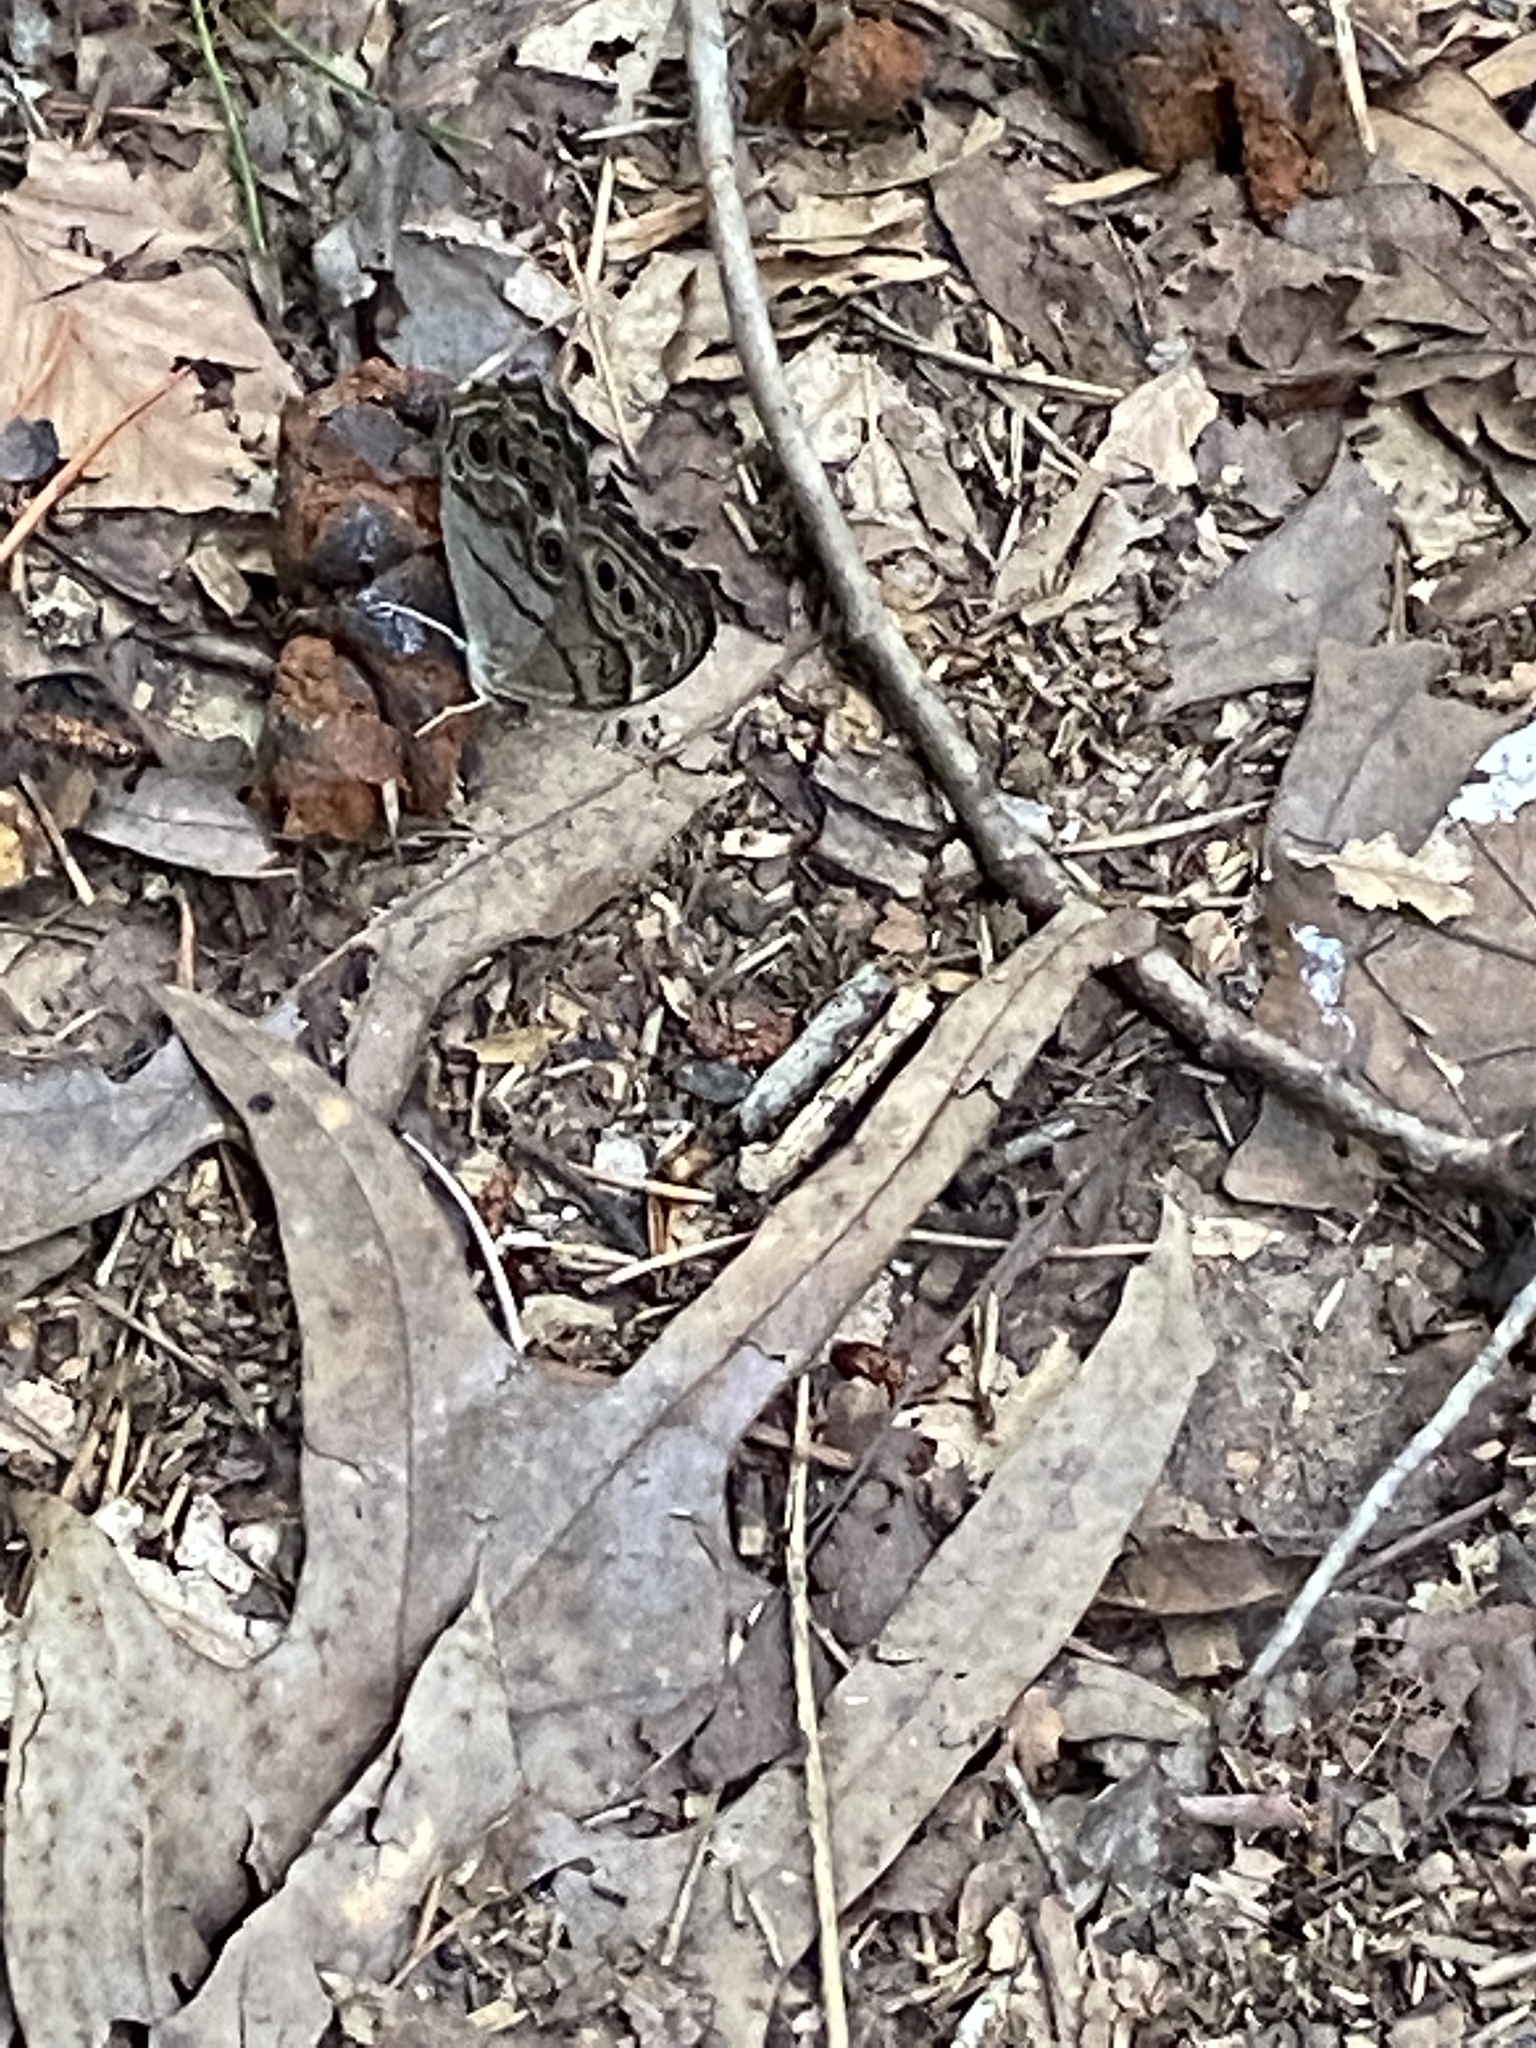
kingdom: Animalia
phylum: Arthropoda
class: Insecta
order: Lepidoptera
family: Nymphalidae
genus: Lethe
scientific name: Lethe anthedon
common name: Northern pearly-eye
